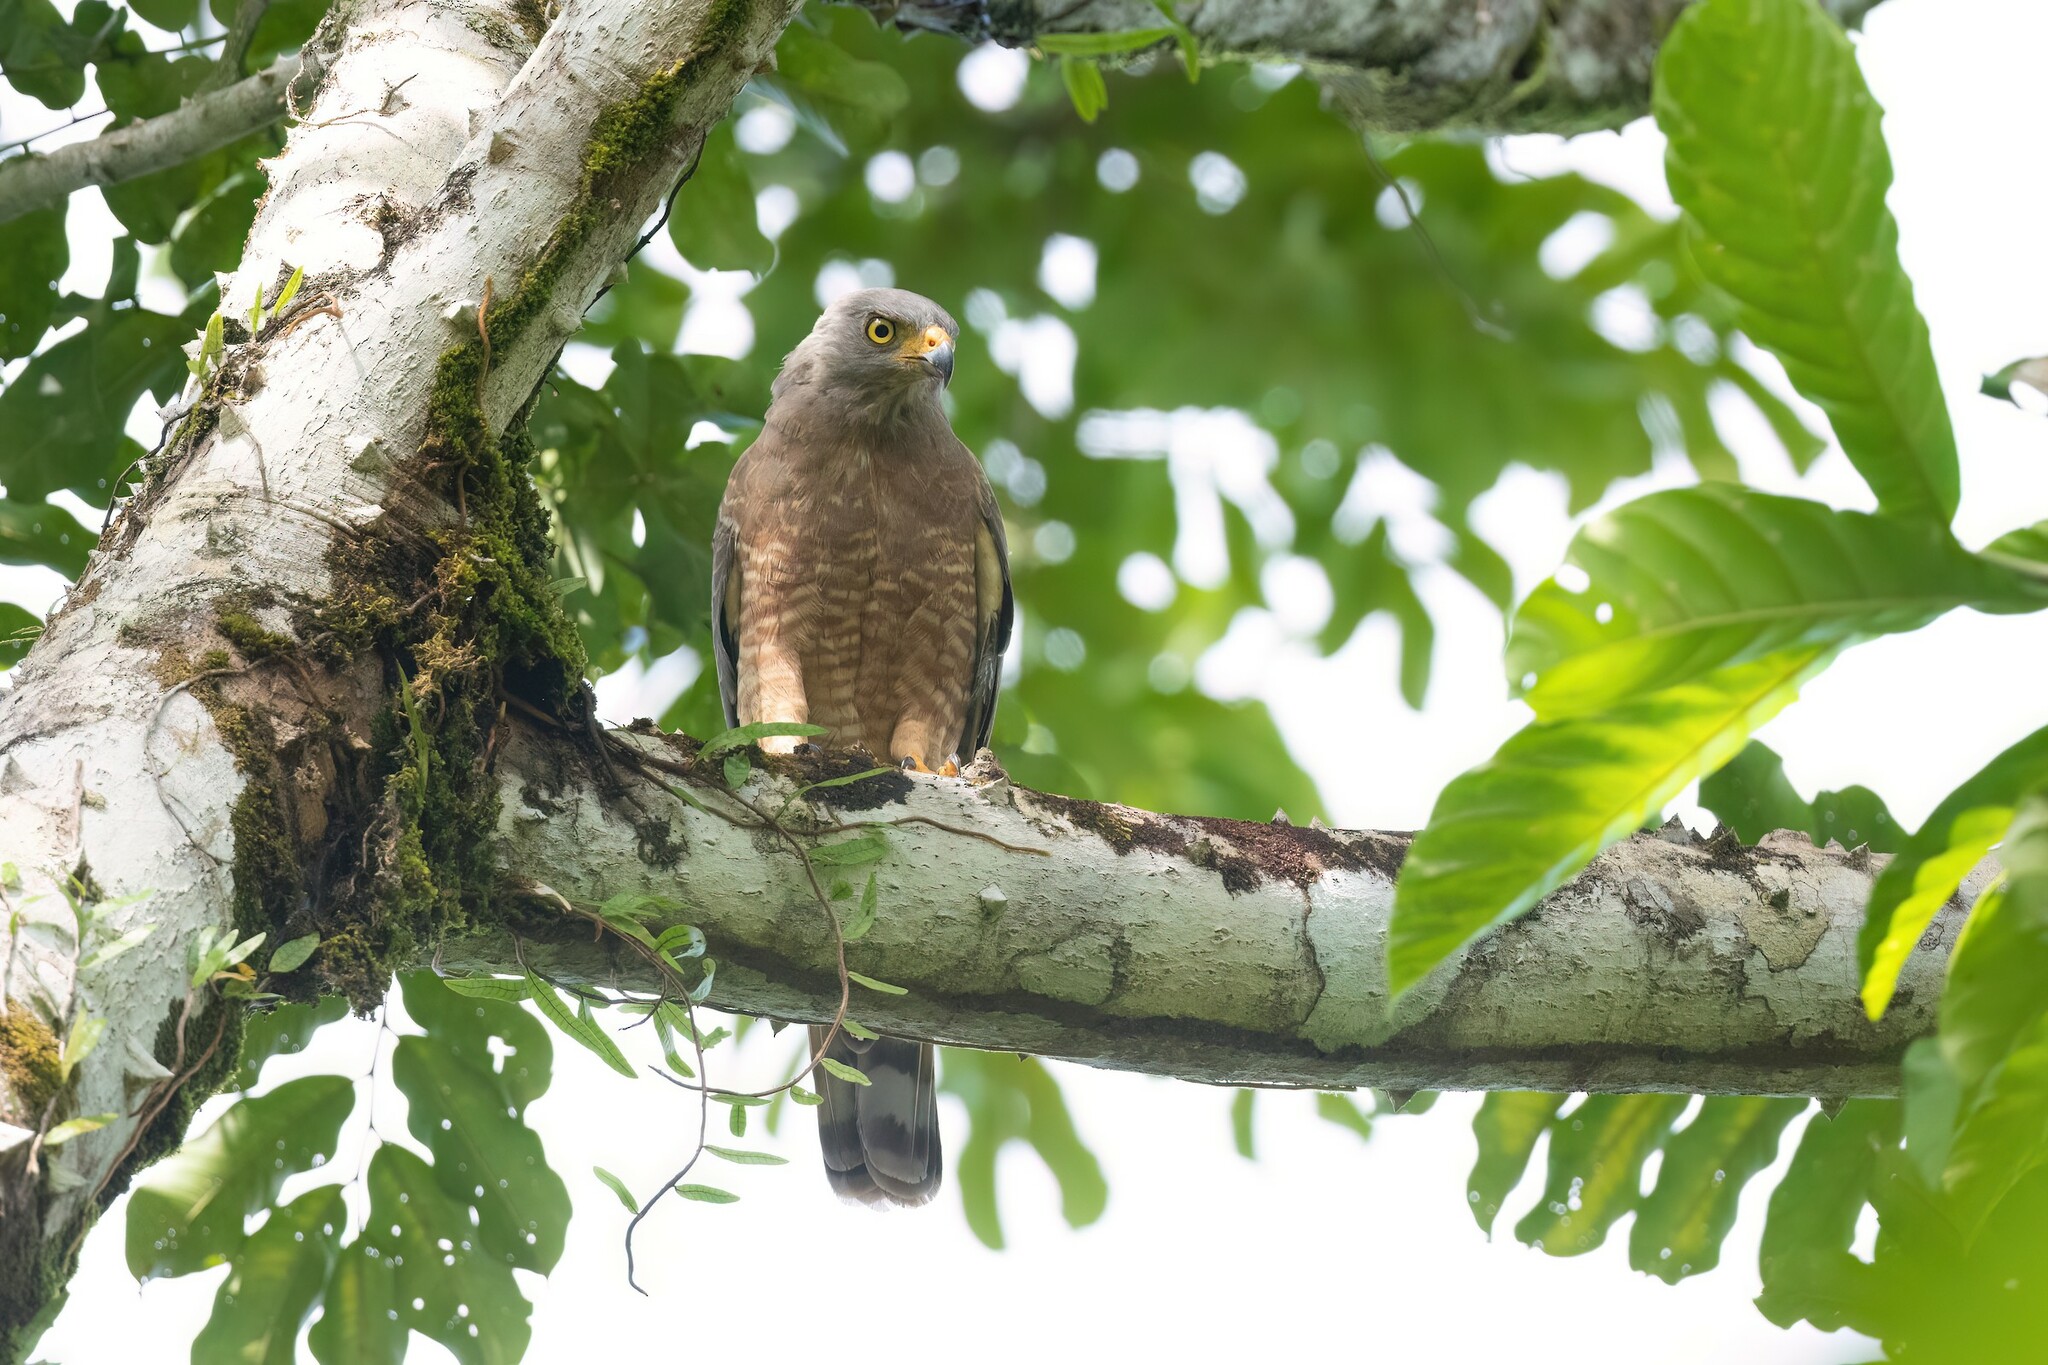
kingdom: Animalia
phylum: Chordata
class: Aves
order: Accipitriformes
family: Accipitridae
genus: Rupornis
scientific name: Rupornis magnirostris
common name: Roadside hawk
